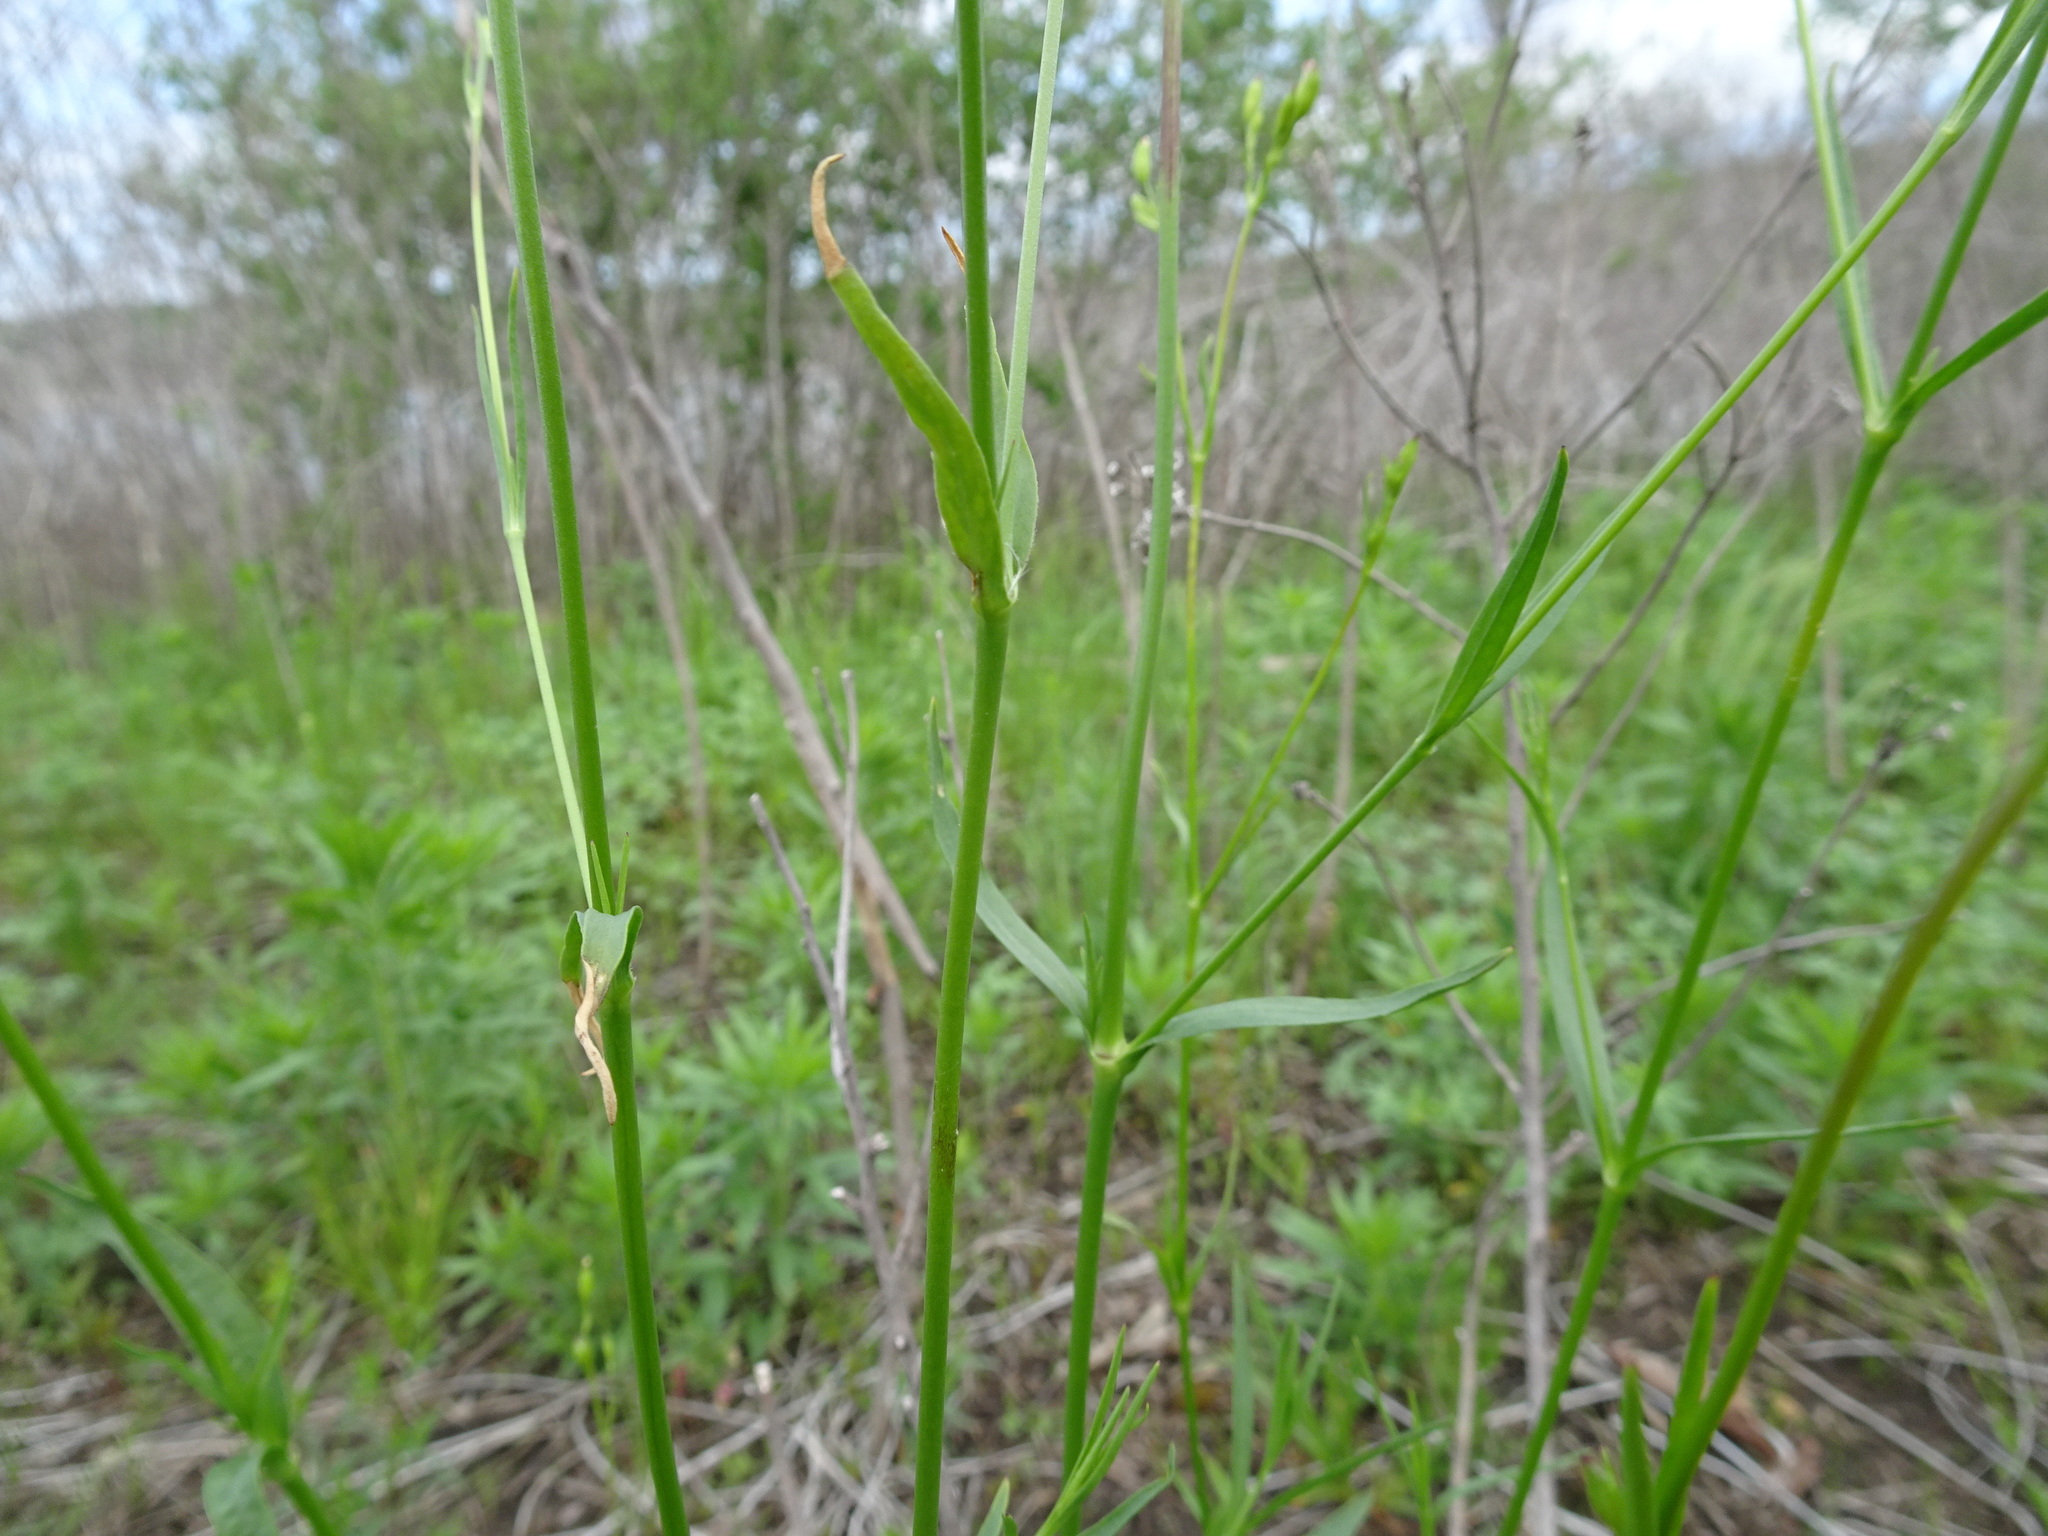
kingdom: Plantae
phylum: Tracheophyta
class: Magnoliopsida
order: Caryophyllales
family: Caryophyllaceae
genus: Silene
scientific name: Silene antirrhina
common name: Sleepy catchfly
